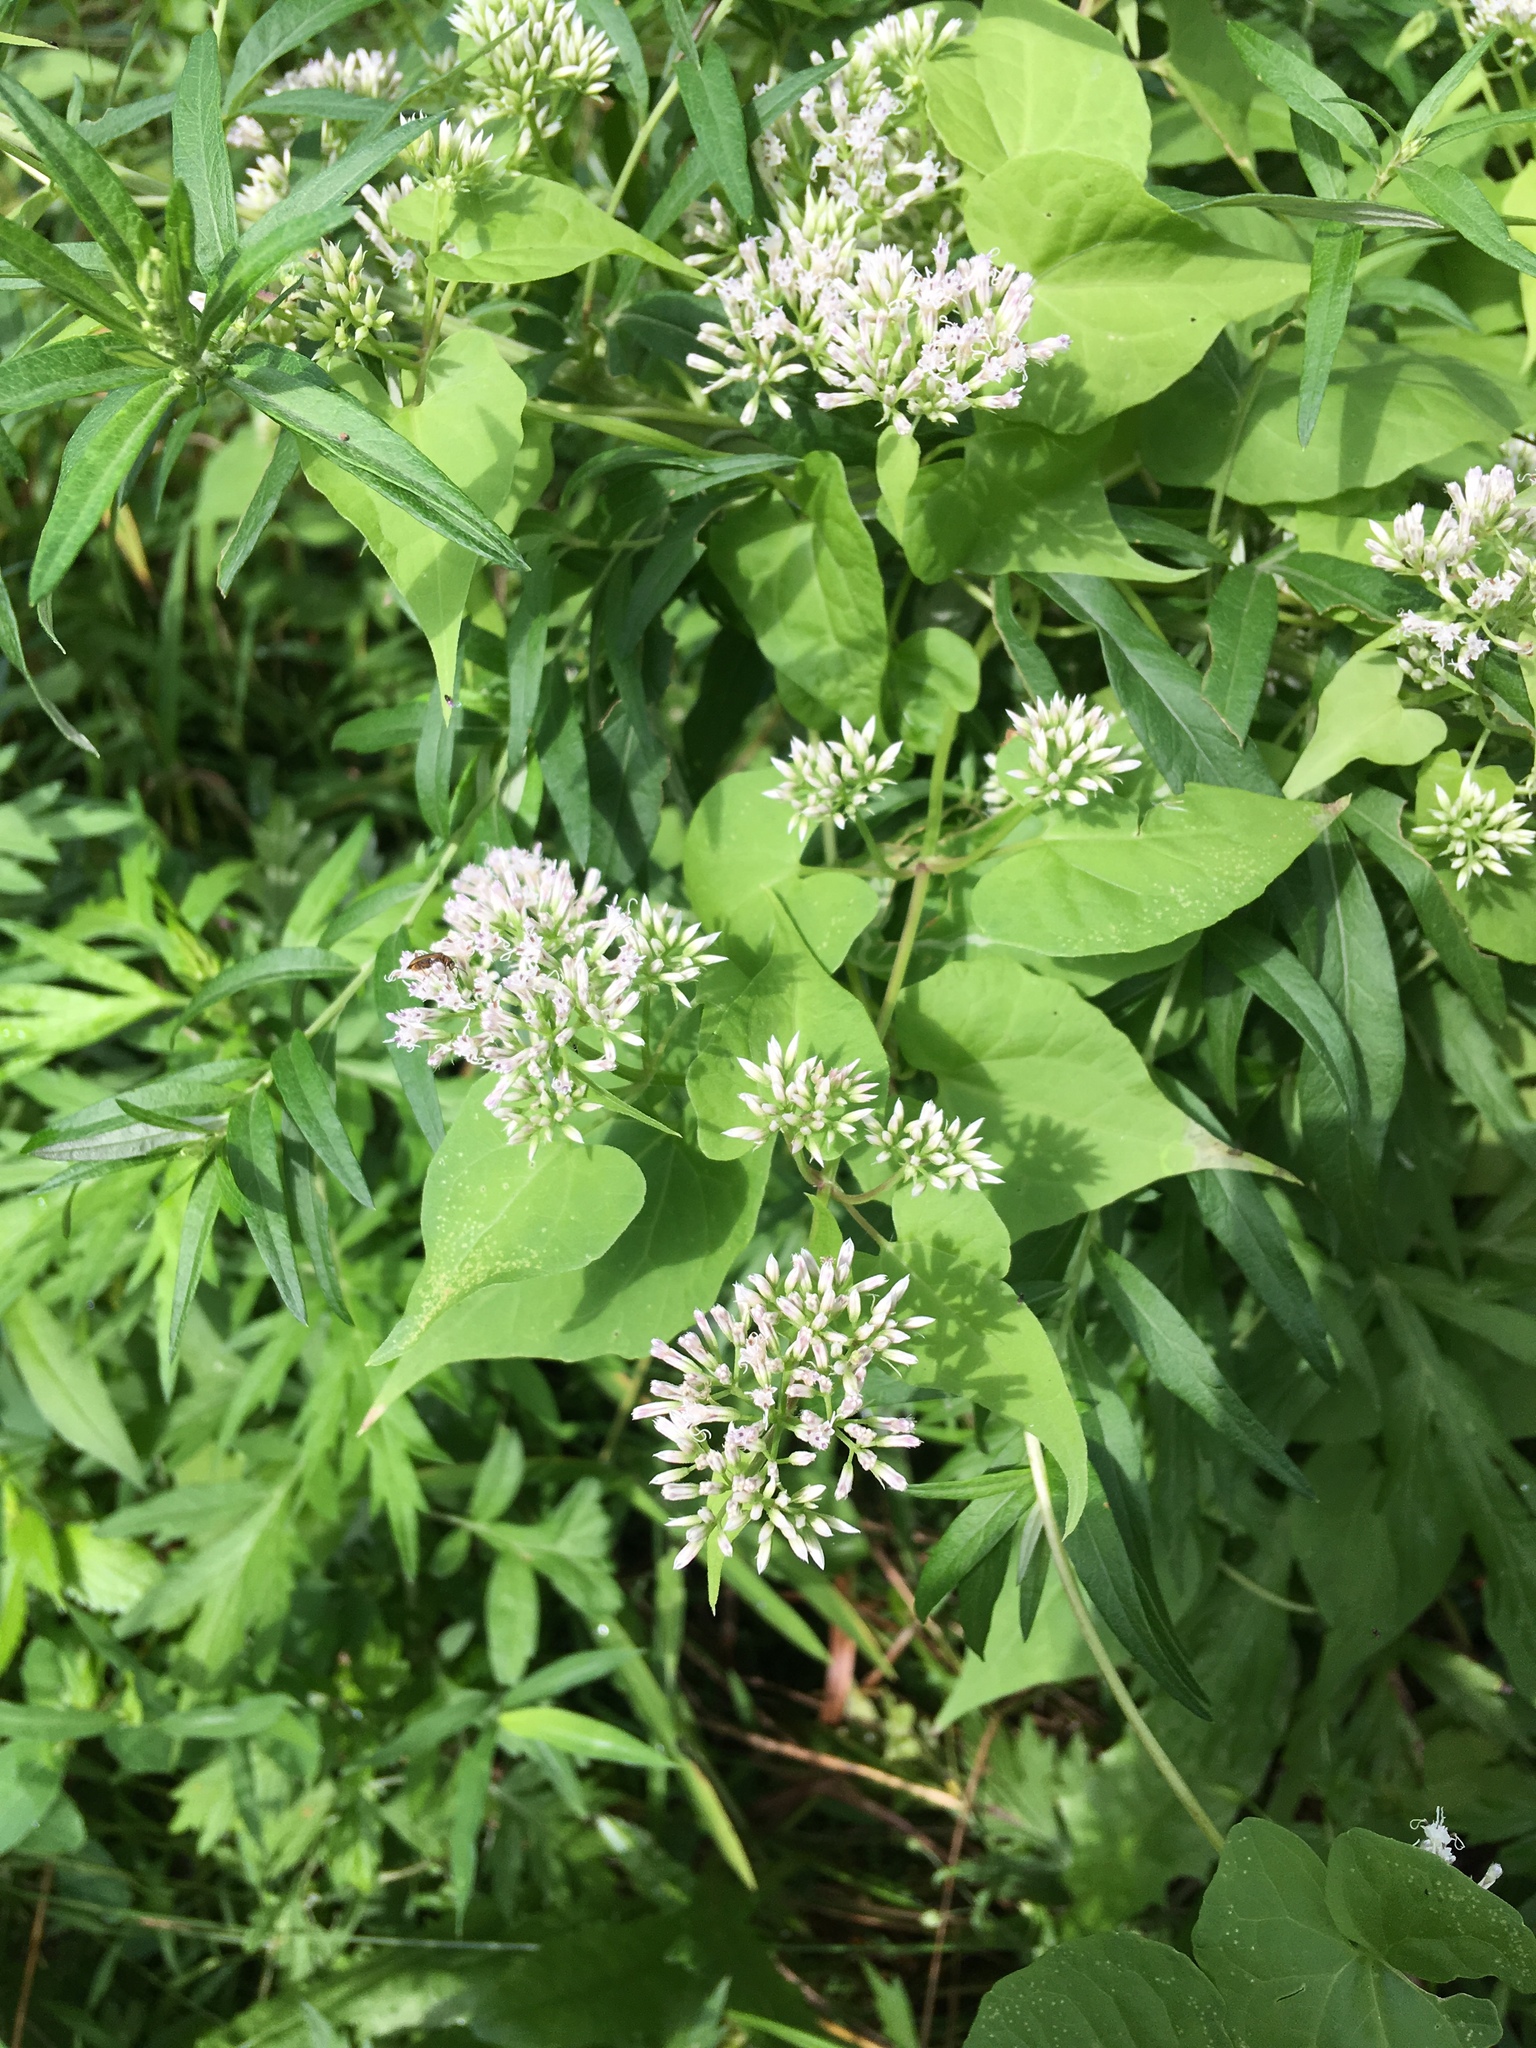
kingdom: Plantae
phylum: Tracheophyta
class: Magnoliopsida
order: Asterales
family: Asteraceae
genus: Mikania
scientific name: Mikania scandens
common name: Climbing hempvine
